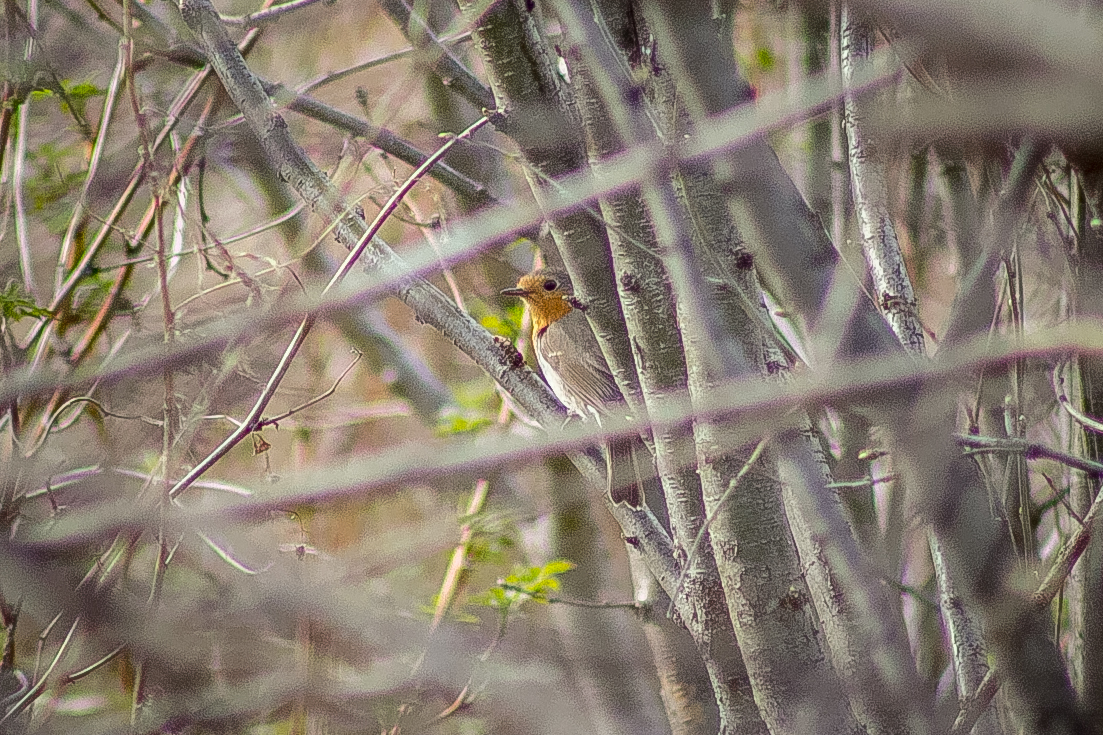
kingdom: Animalia
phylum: Chordata
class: Aves
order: Passeriformes
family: Muscicapidae
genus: Erithacus
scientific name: Erithacus rubecula
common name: European robin
